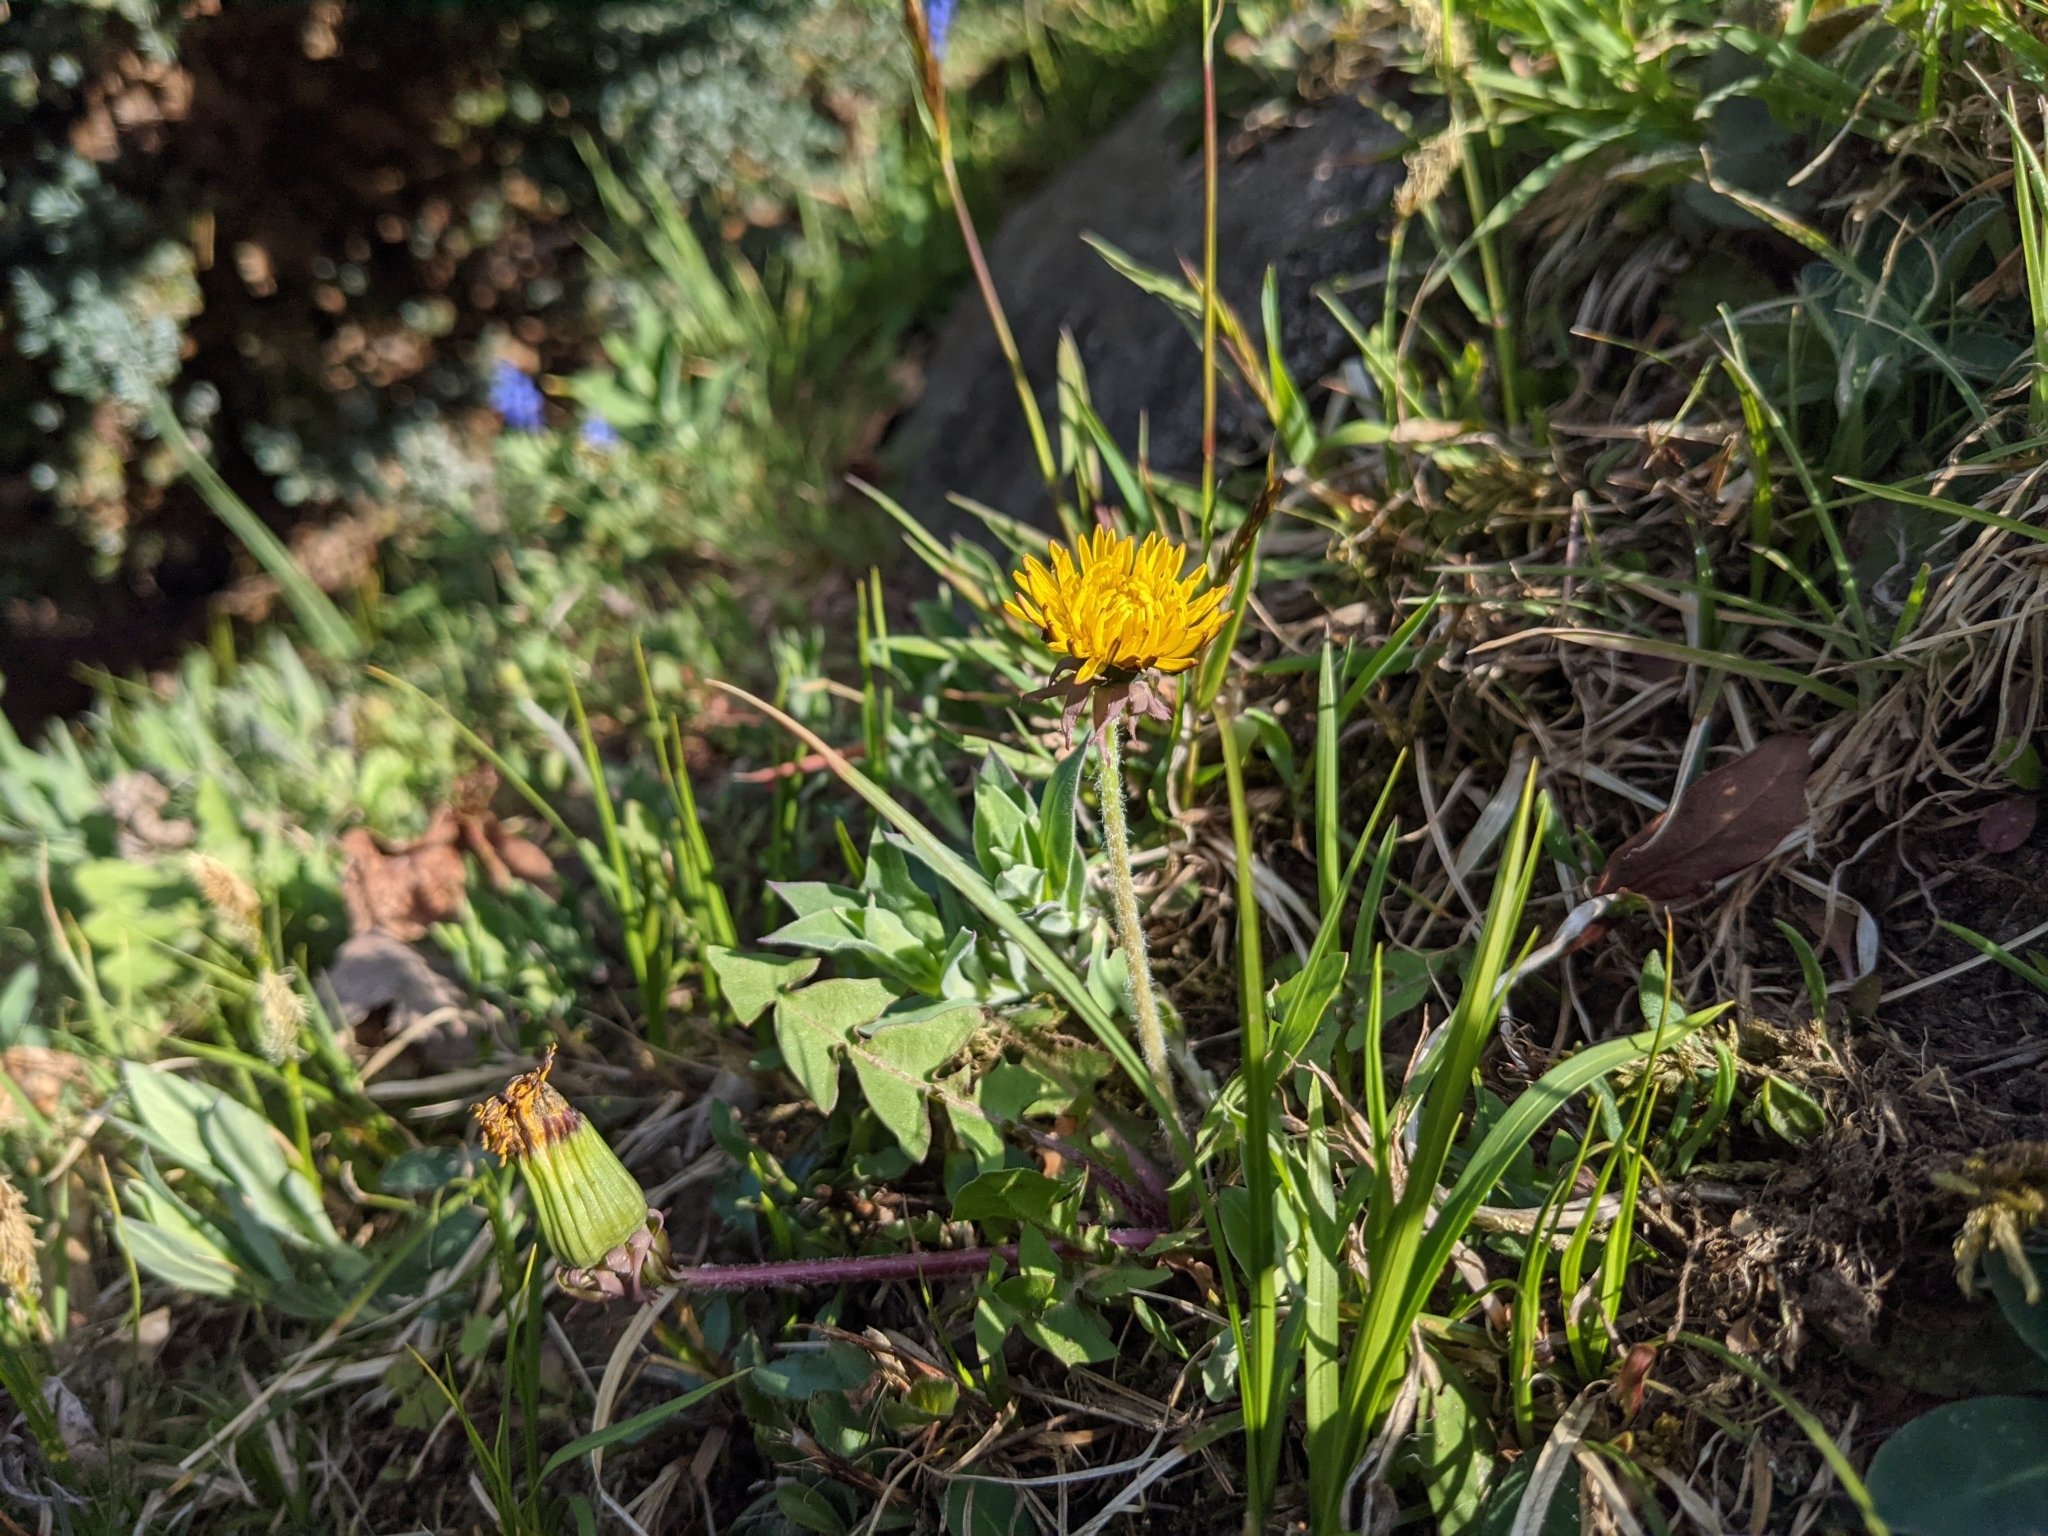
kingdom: Plantae
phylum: Tracheophyta
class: Magnoliopsida
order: Asterales
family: Asteraceae
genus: Taraxacum
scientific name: Taraxacum officinale
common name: Common dandelion
